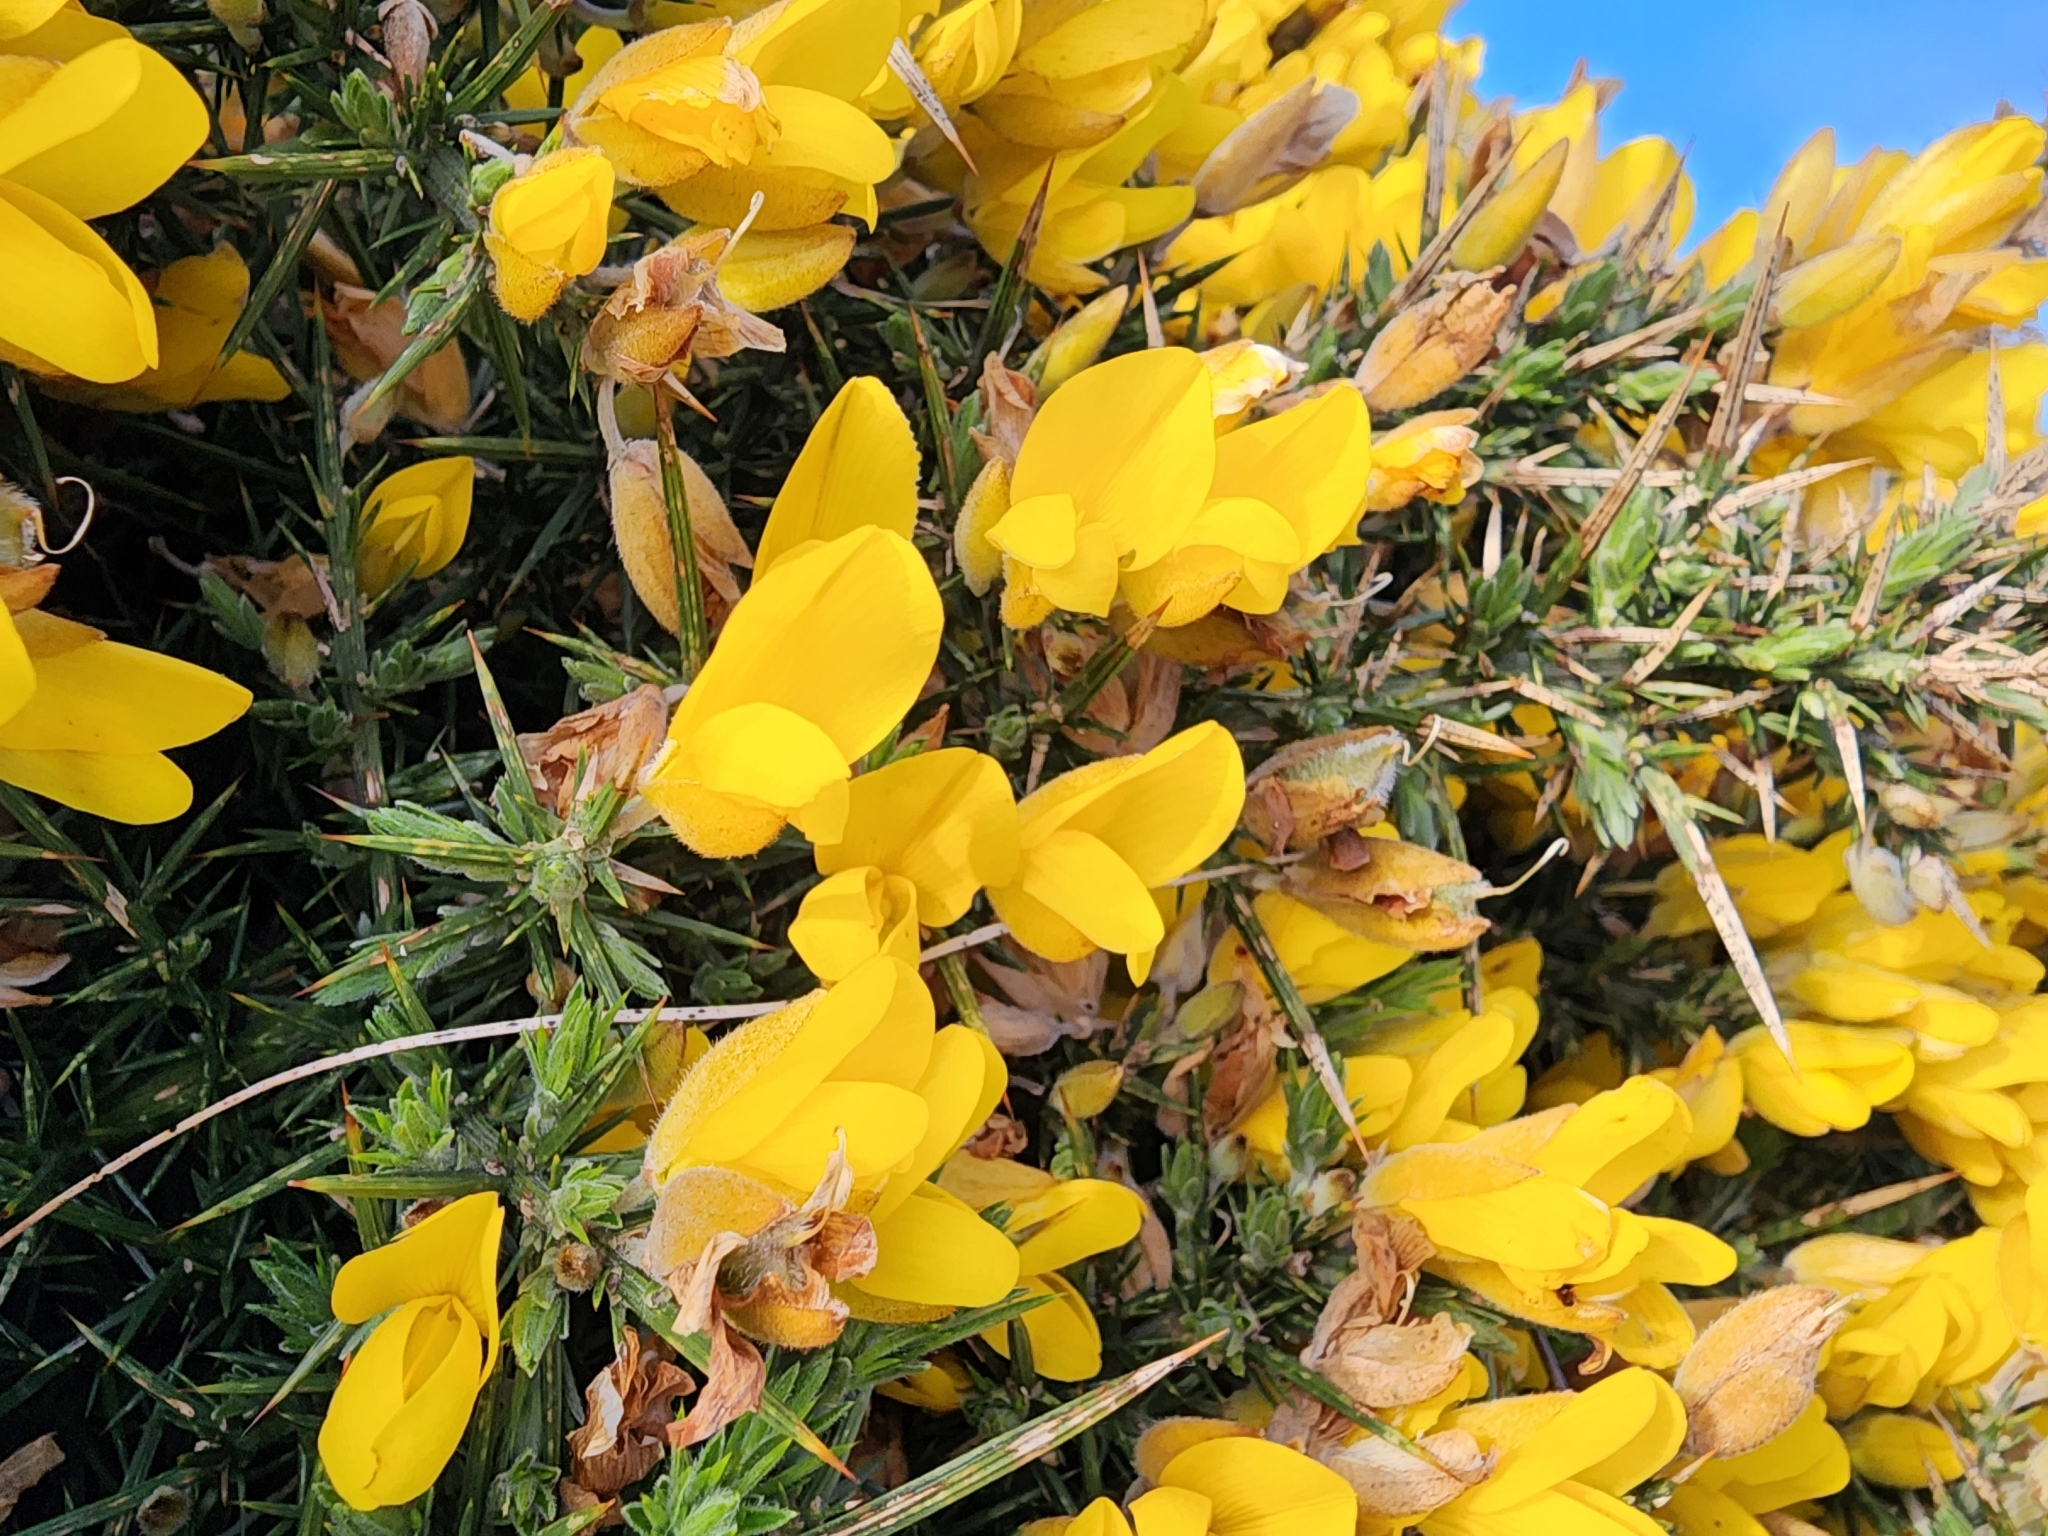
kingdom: Plantae
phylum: Tracheophyta
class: Magnoliopsida
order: Fabales
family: Fabaceae
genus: Ulex
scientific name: Ulex europaeus
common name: Common gorse
